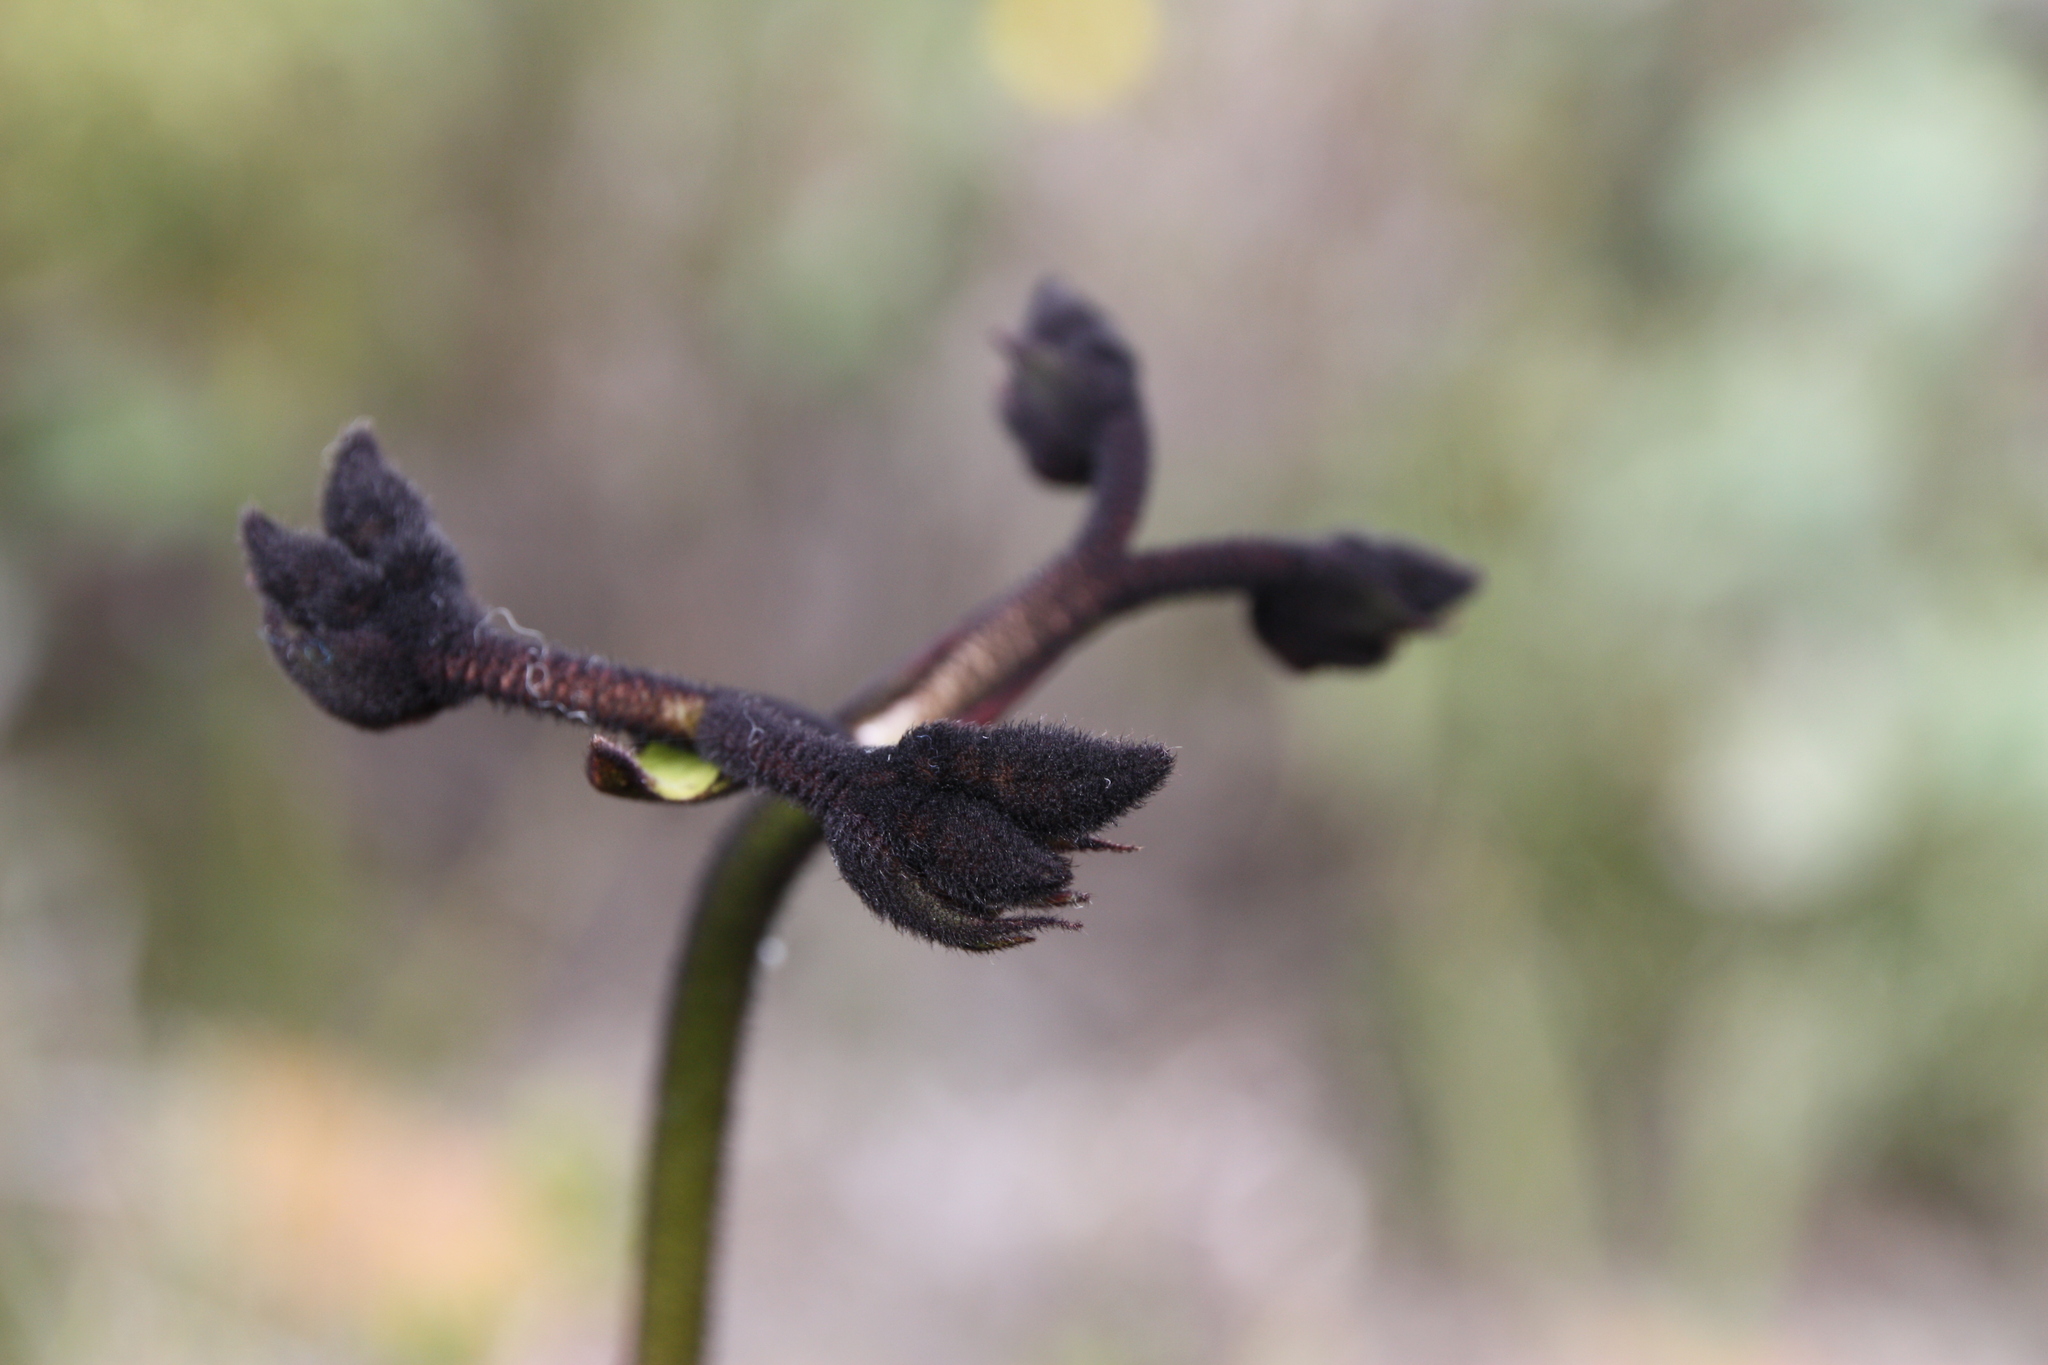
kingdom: Plantae
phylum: Tracheophyta
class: Liliopsida
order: Commelinales
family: Haemodoraceae
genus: Macropidia
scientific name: Macropidia fuliginosa
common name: Black kangaroo-paw
